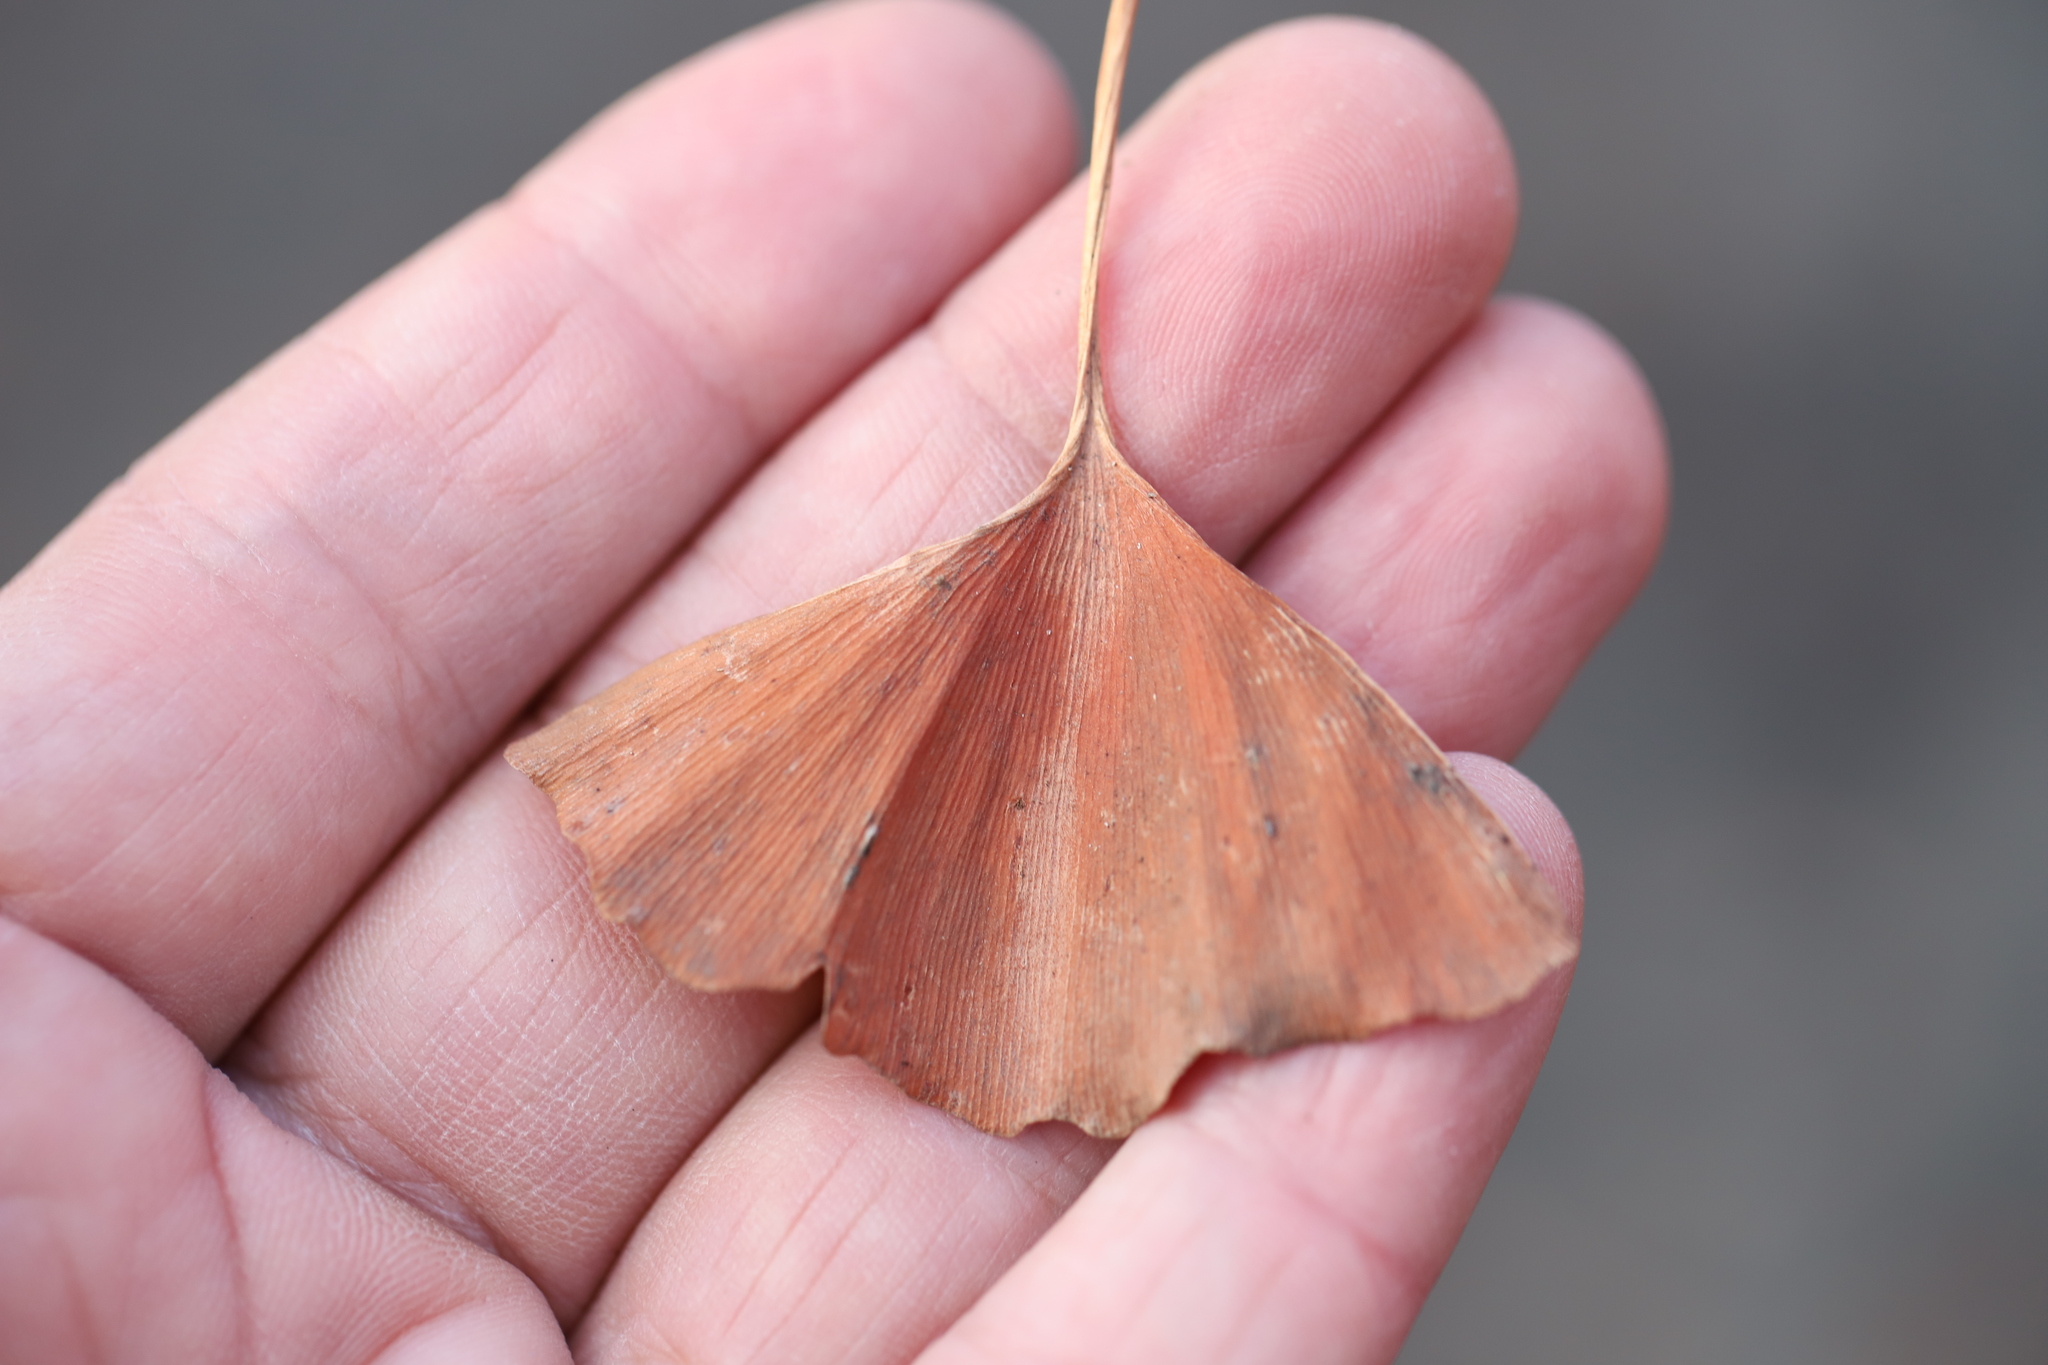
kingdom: Fungi
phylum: Basidiomycota
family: Bartheletiaceae
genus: Bartheletia
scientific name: Bartheletia paradoxa
